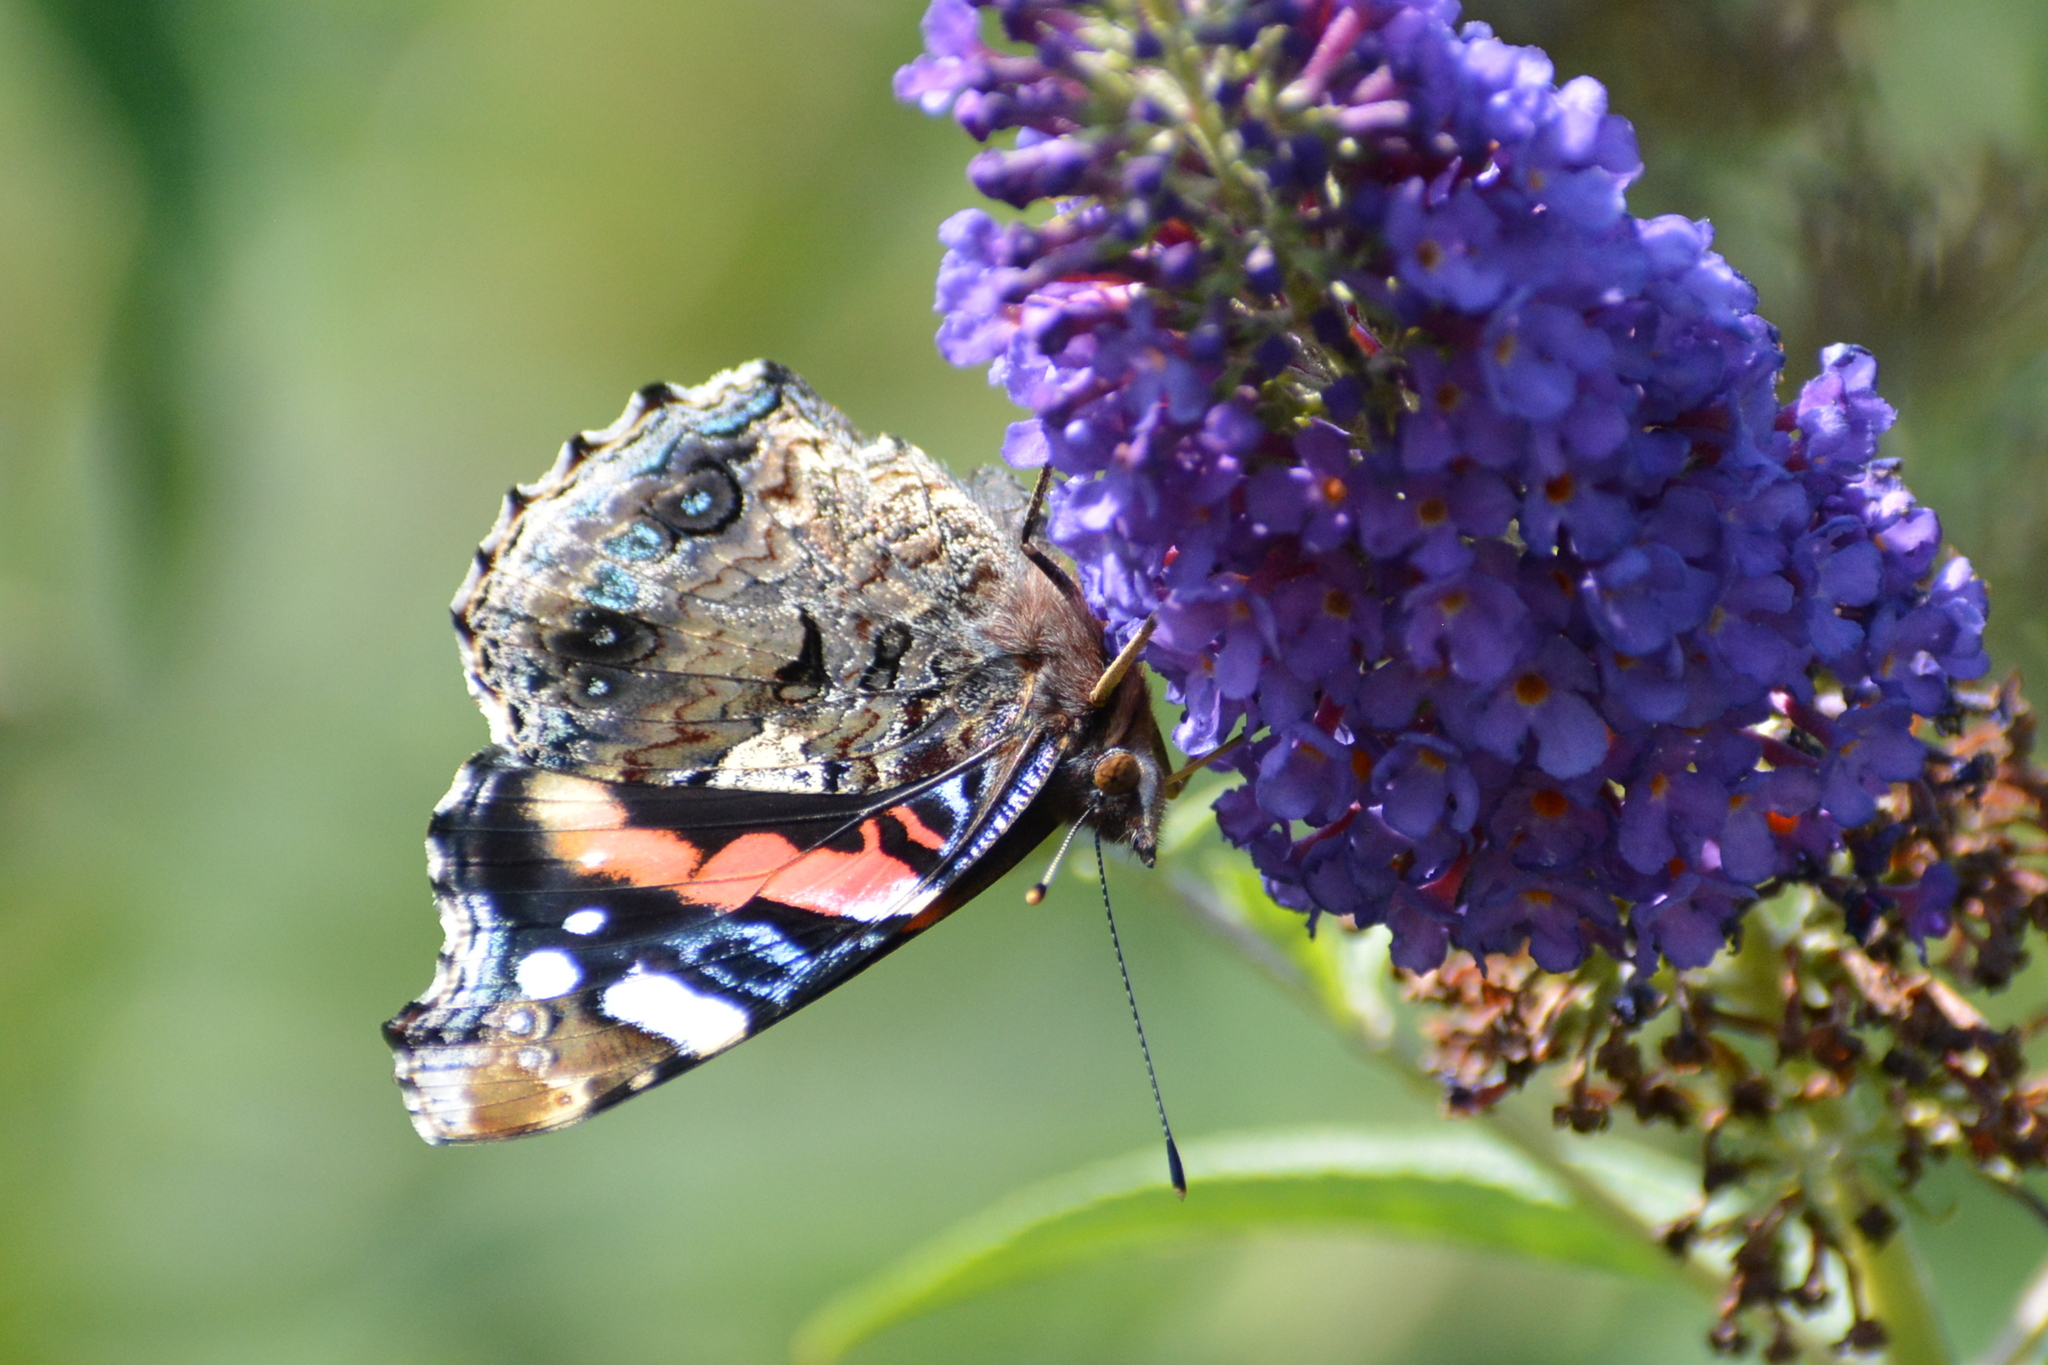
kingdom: Animalia
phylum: Arthropoda
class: Insecta
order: Lepidoptera
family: Nymphalidae
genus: Vanessa
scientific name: Vanessa atalanta
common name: Red admiral
